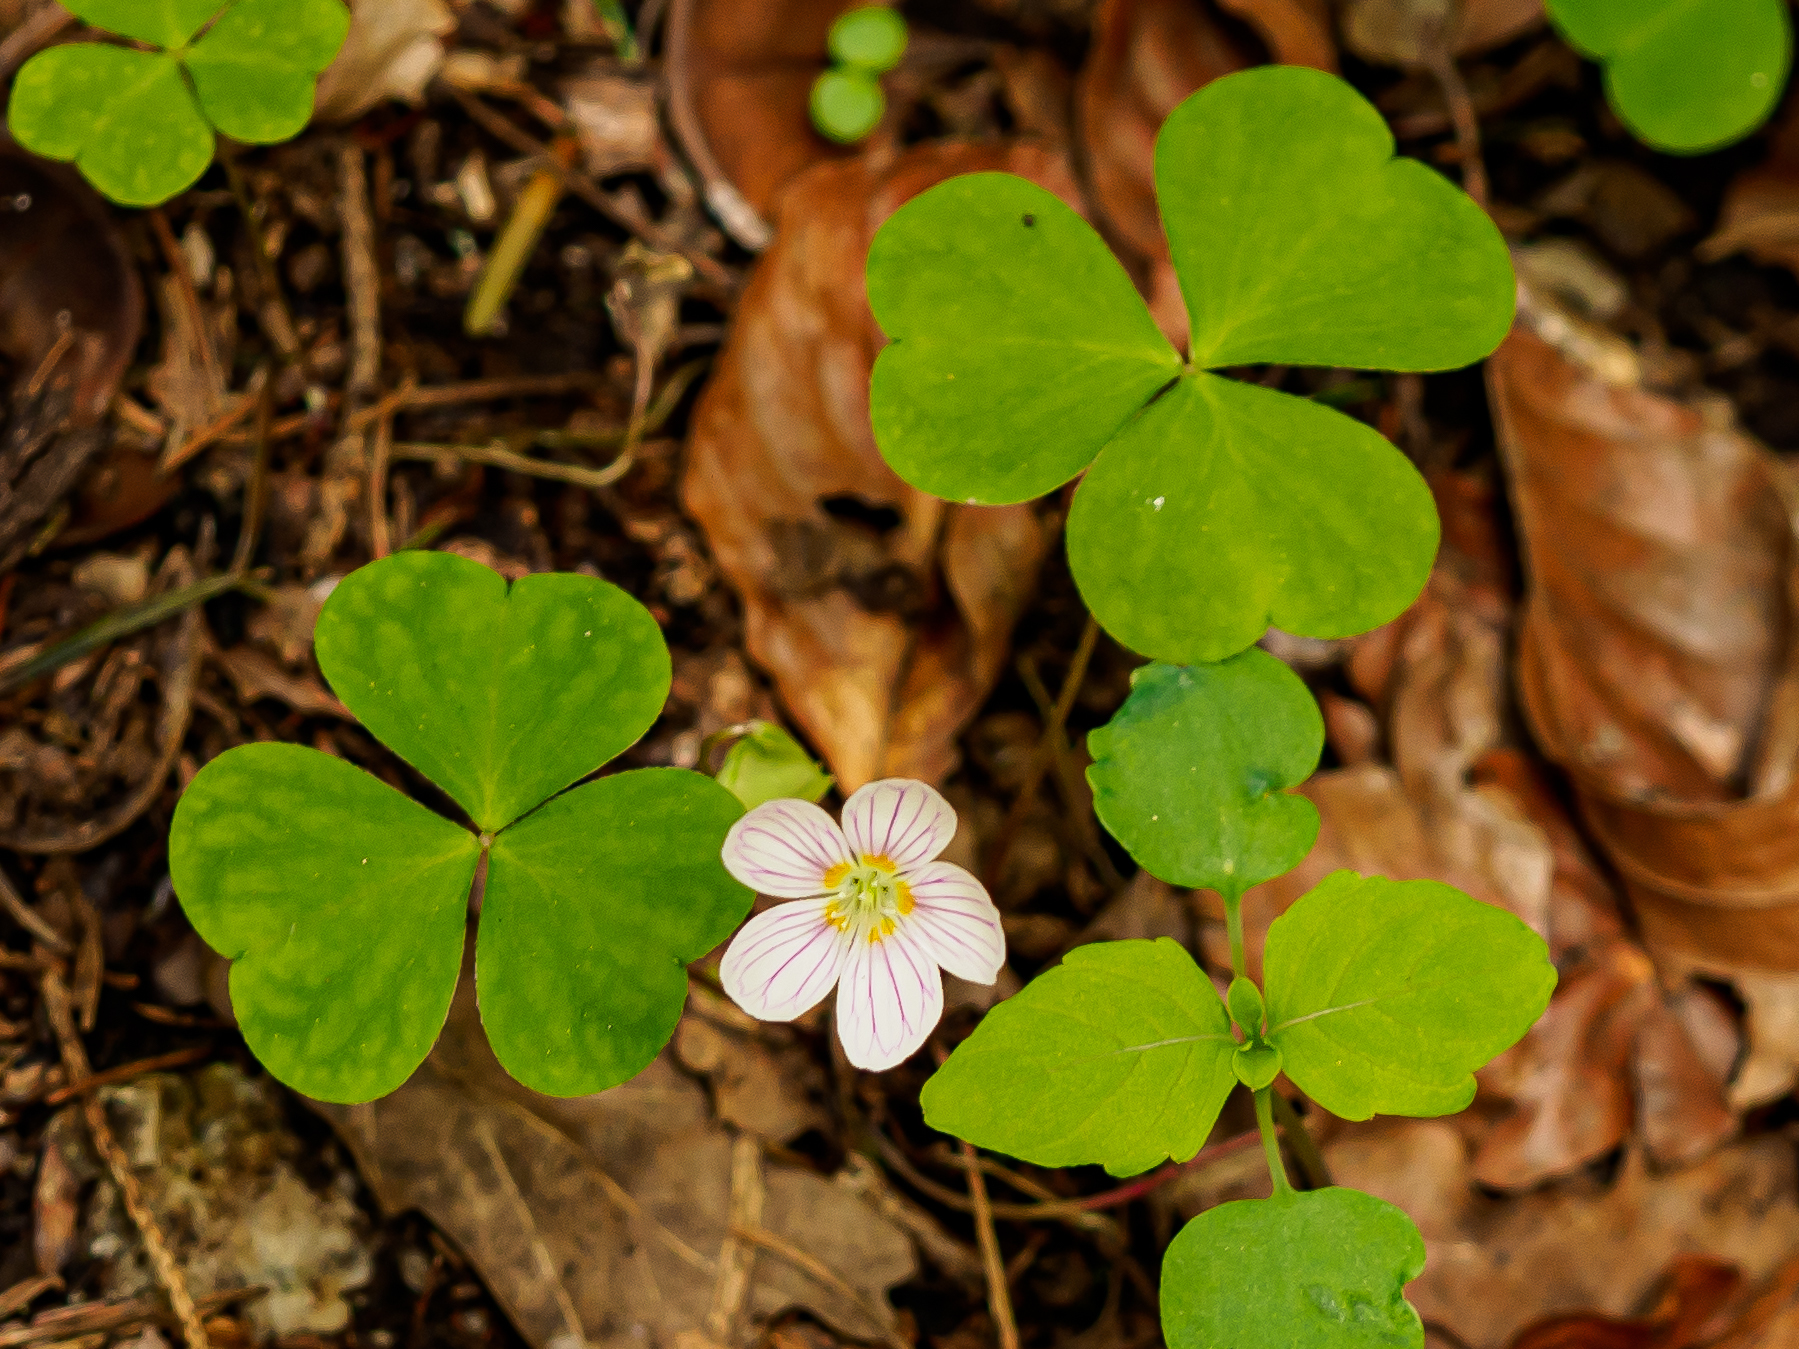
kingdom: Plantae
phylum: Tracheophyta
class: Magnoliopsida
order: Oxalidales
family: Oxalidaceae
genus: Oxalis
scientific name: Oxalis acetosella
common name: Wood-sorrel
